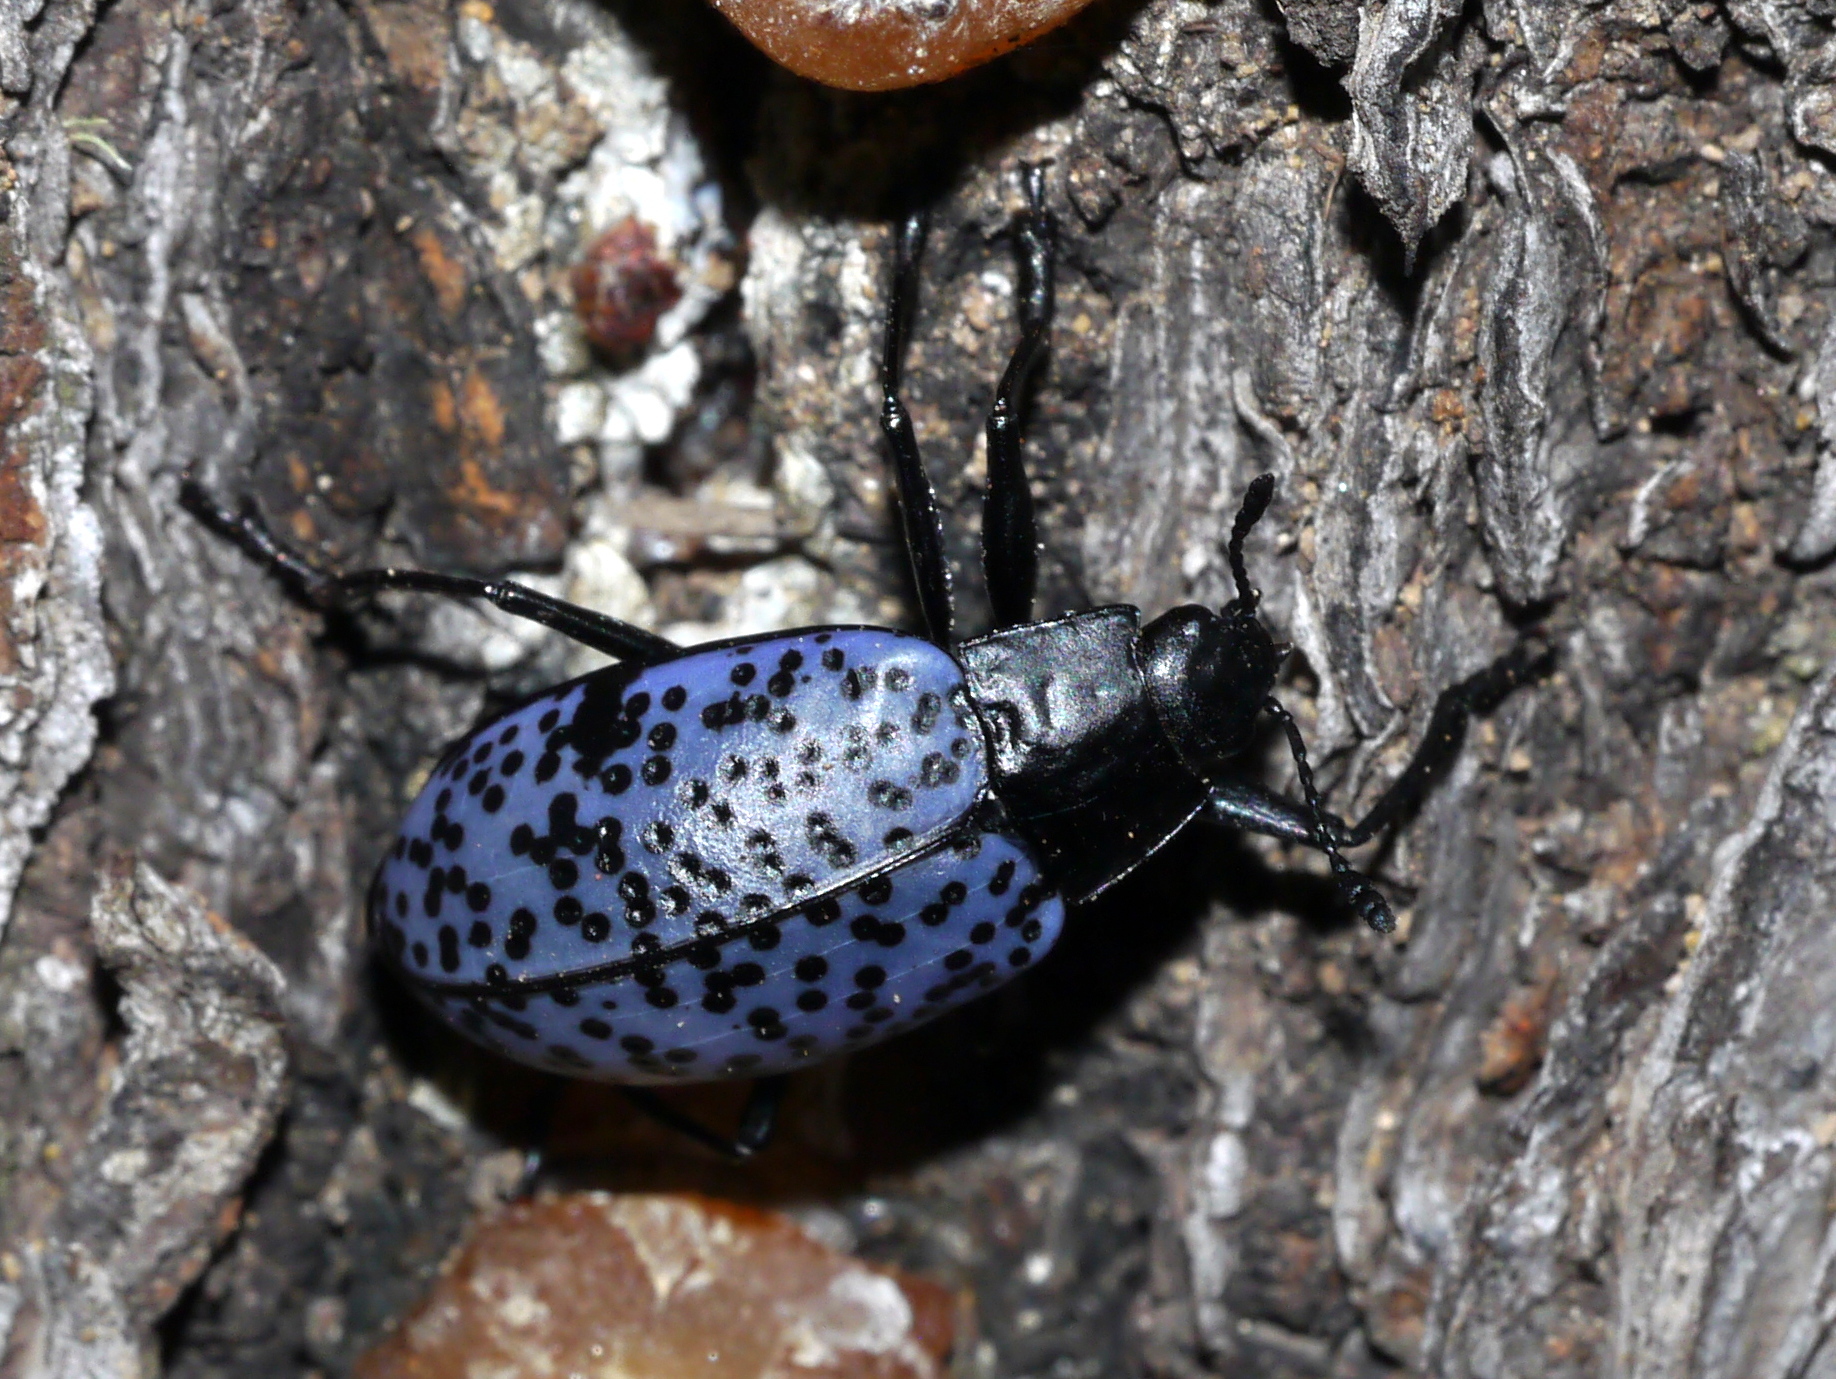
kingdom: Animalia
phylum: Arthropoda
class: Insecta
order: Coleoptera
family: Erotylidae
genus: Gibbifer
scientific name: Gibbifer californicus
